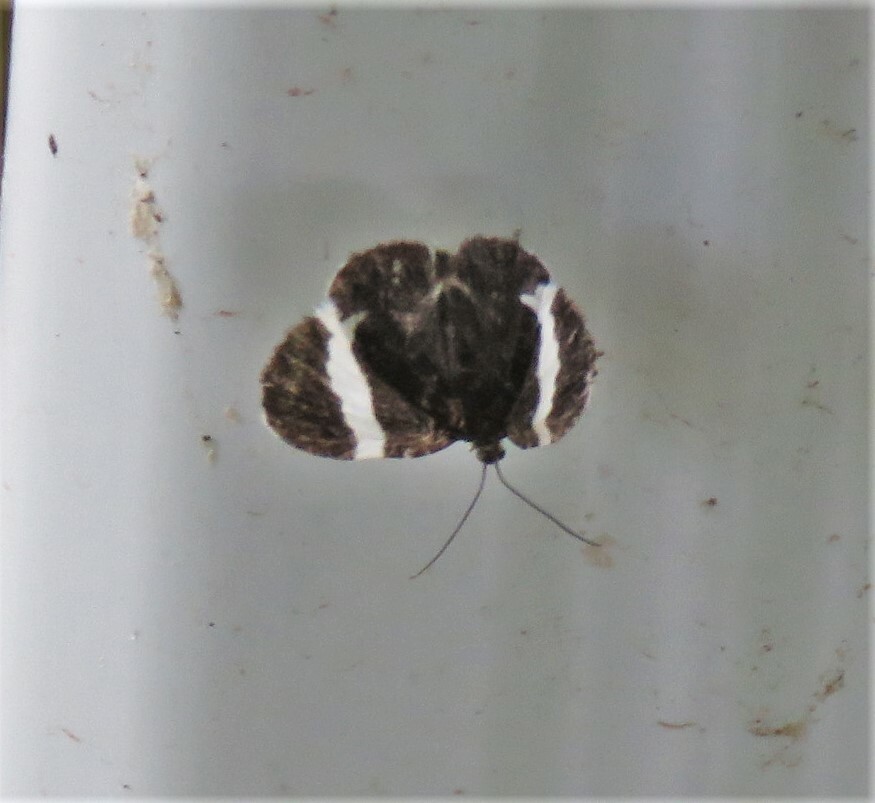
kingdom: Animalia
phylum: Arthropoda
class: Insecta
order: Lepidoptera
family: Geometridae
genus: Trichodezia
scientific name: Trichodezia albovittata
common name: White striped black
